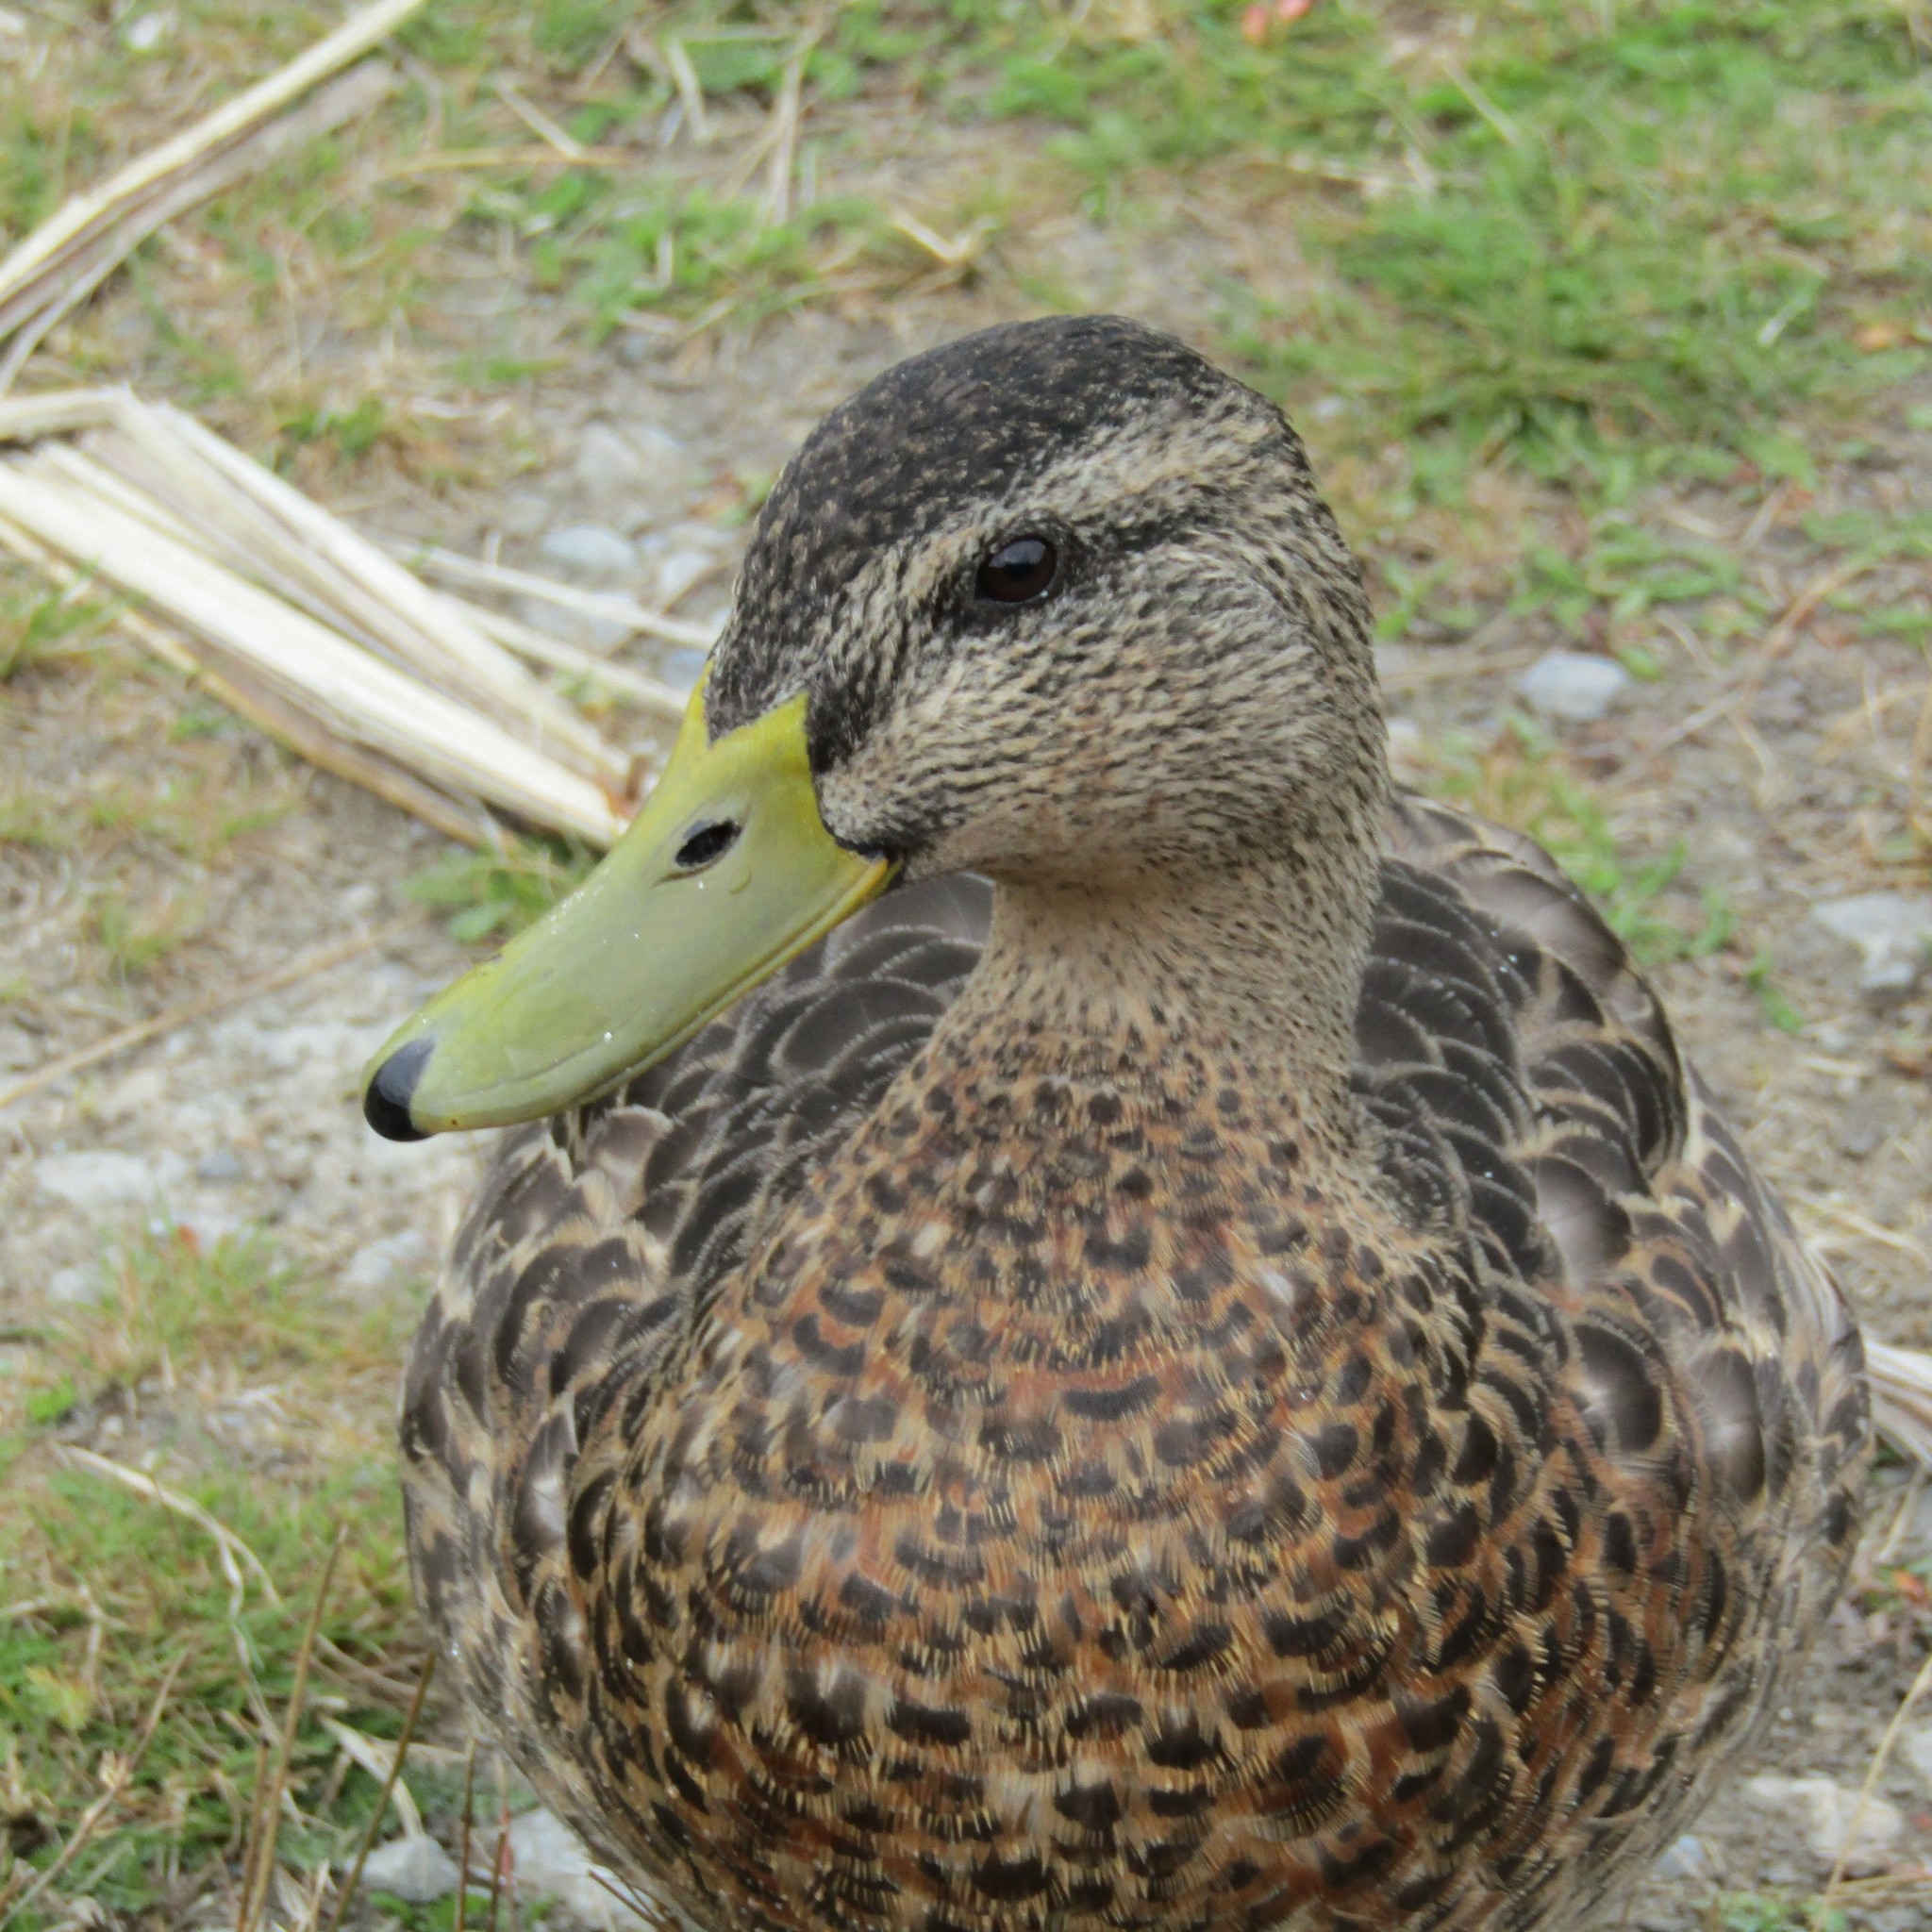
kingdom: Animalia
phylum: Chordata
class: Aves
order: Anseriformes
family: Anatidae
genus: Anas
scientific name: Anas platyrhynchos
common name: Mallard
